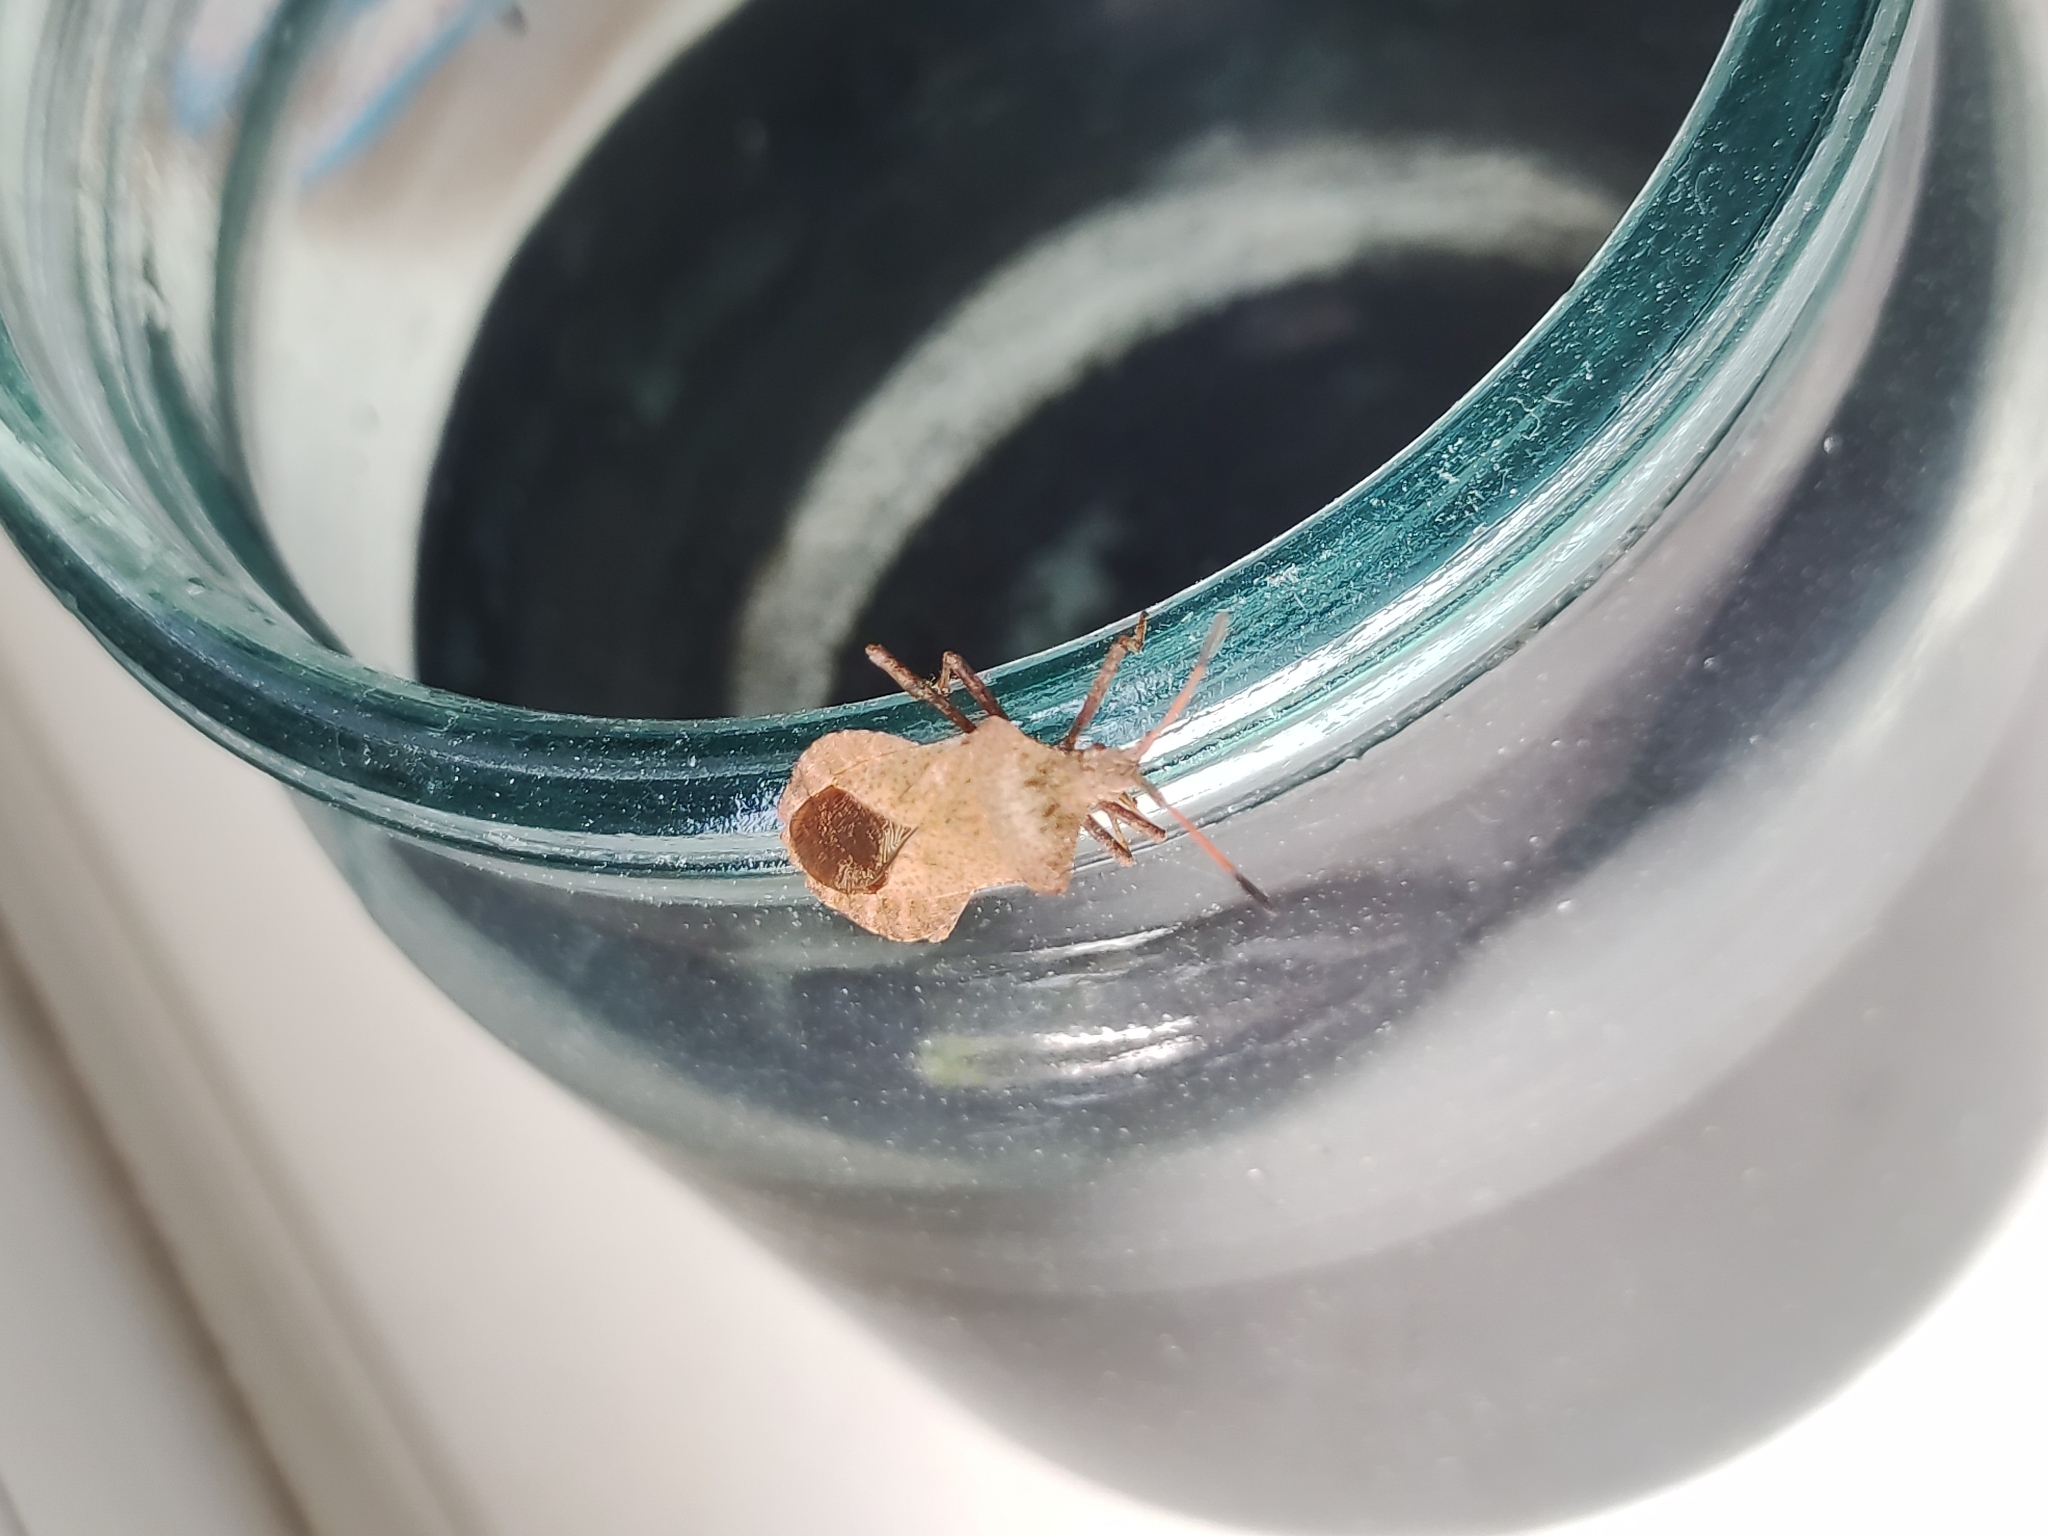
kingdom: Animalia
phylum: Arthropoda
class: Insecta
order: Hemiptera
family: Coreidae
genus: Coreus
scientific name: Coreus marginatus
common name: Dock bug
